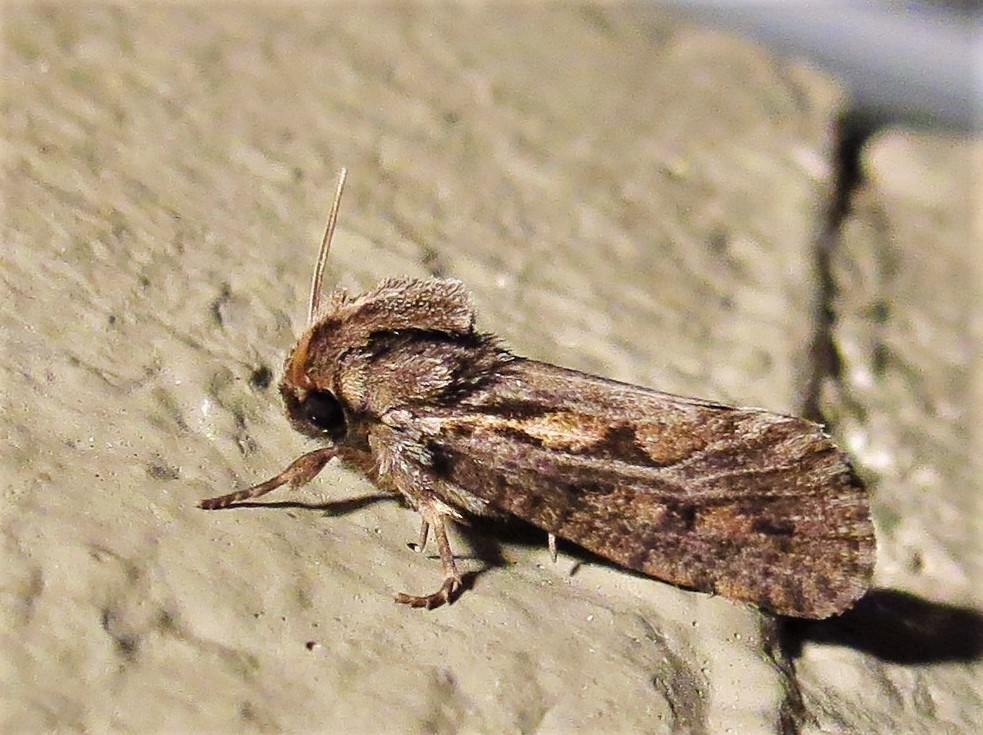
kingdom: Animalia
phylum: Arthropoda
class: Insecta
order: Lepidoptera
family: Tineidae
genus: Acrolophus
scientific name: Acrolophus popeanella
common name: Clemens' grass tubeworm moth
